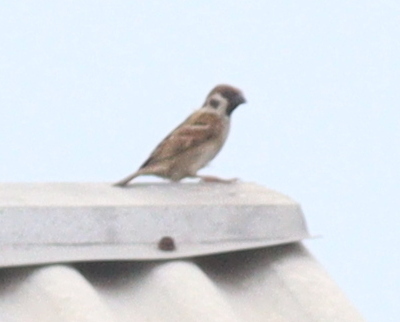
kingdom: Animalia
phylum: Chordata
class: Aves
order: Passeriformes
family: Passeridae
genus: Passer
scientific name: Passer montanus
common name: Eurasian tree sparrow
